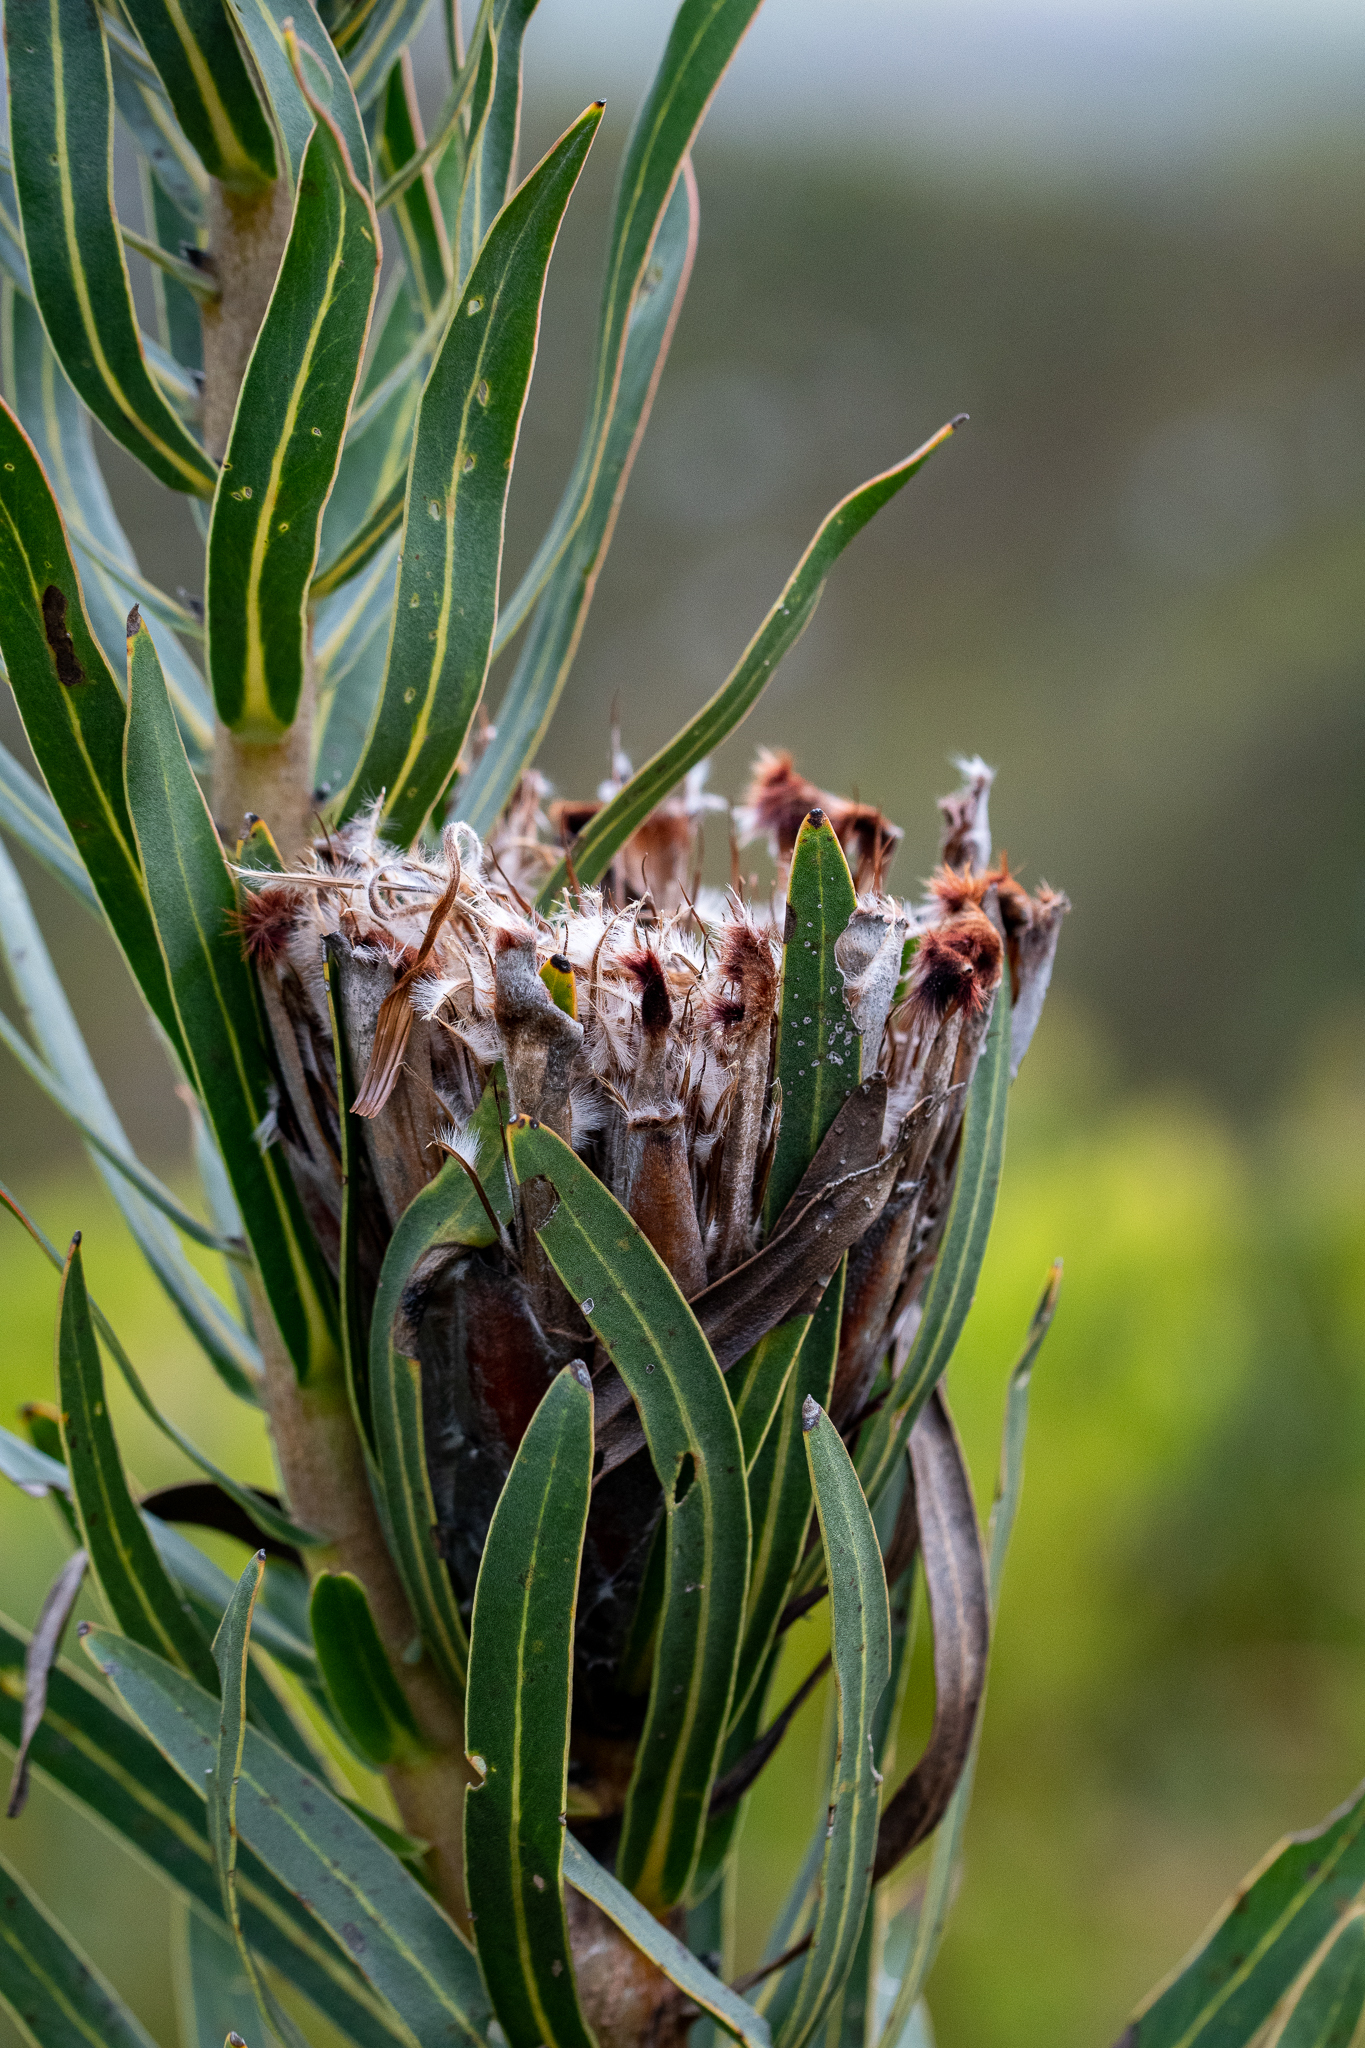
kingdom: Plantae
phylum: Tracheophyta
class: Magnoliopsida
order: Proteales
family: Proteaceae
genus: Protea
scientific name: Protea lepidocarpodendron
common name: Black-bearded protea
